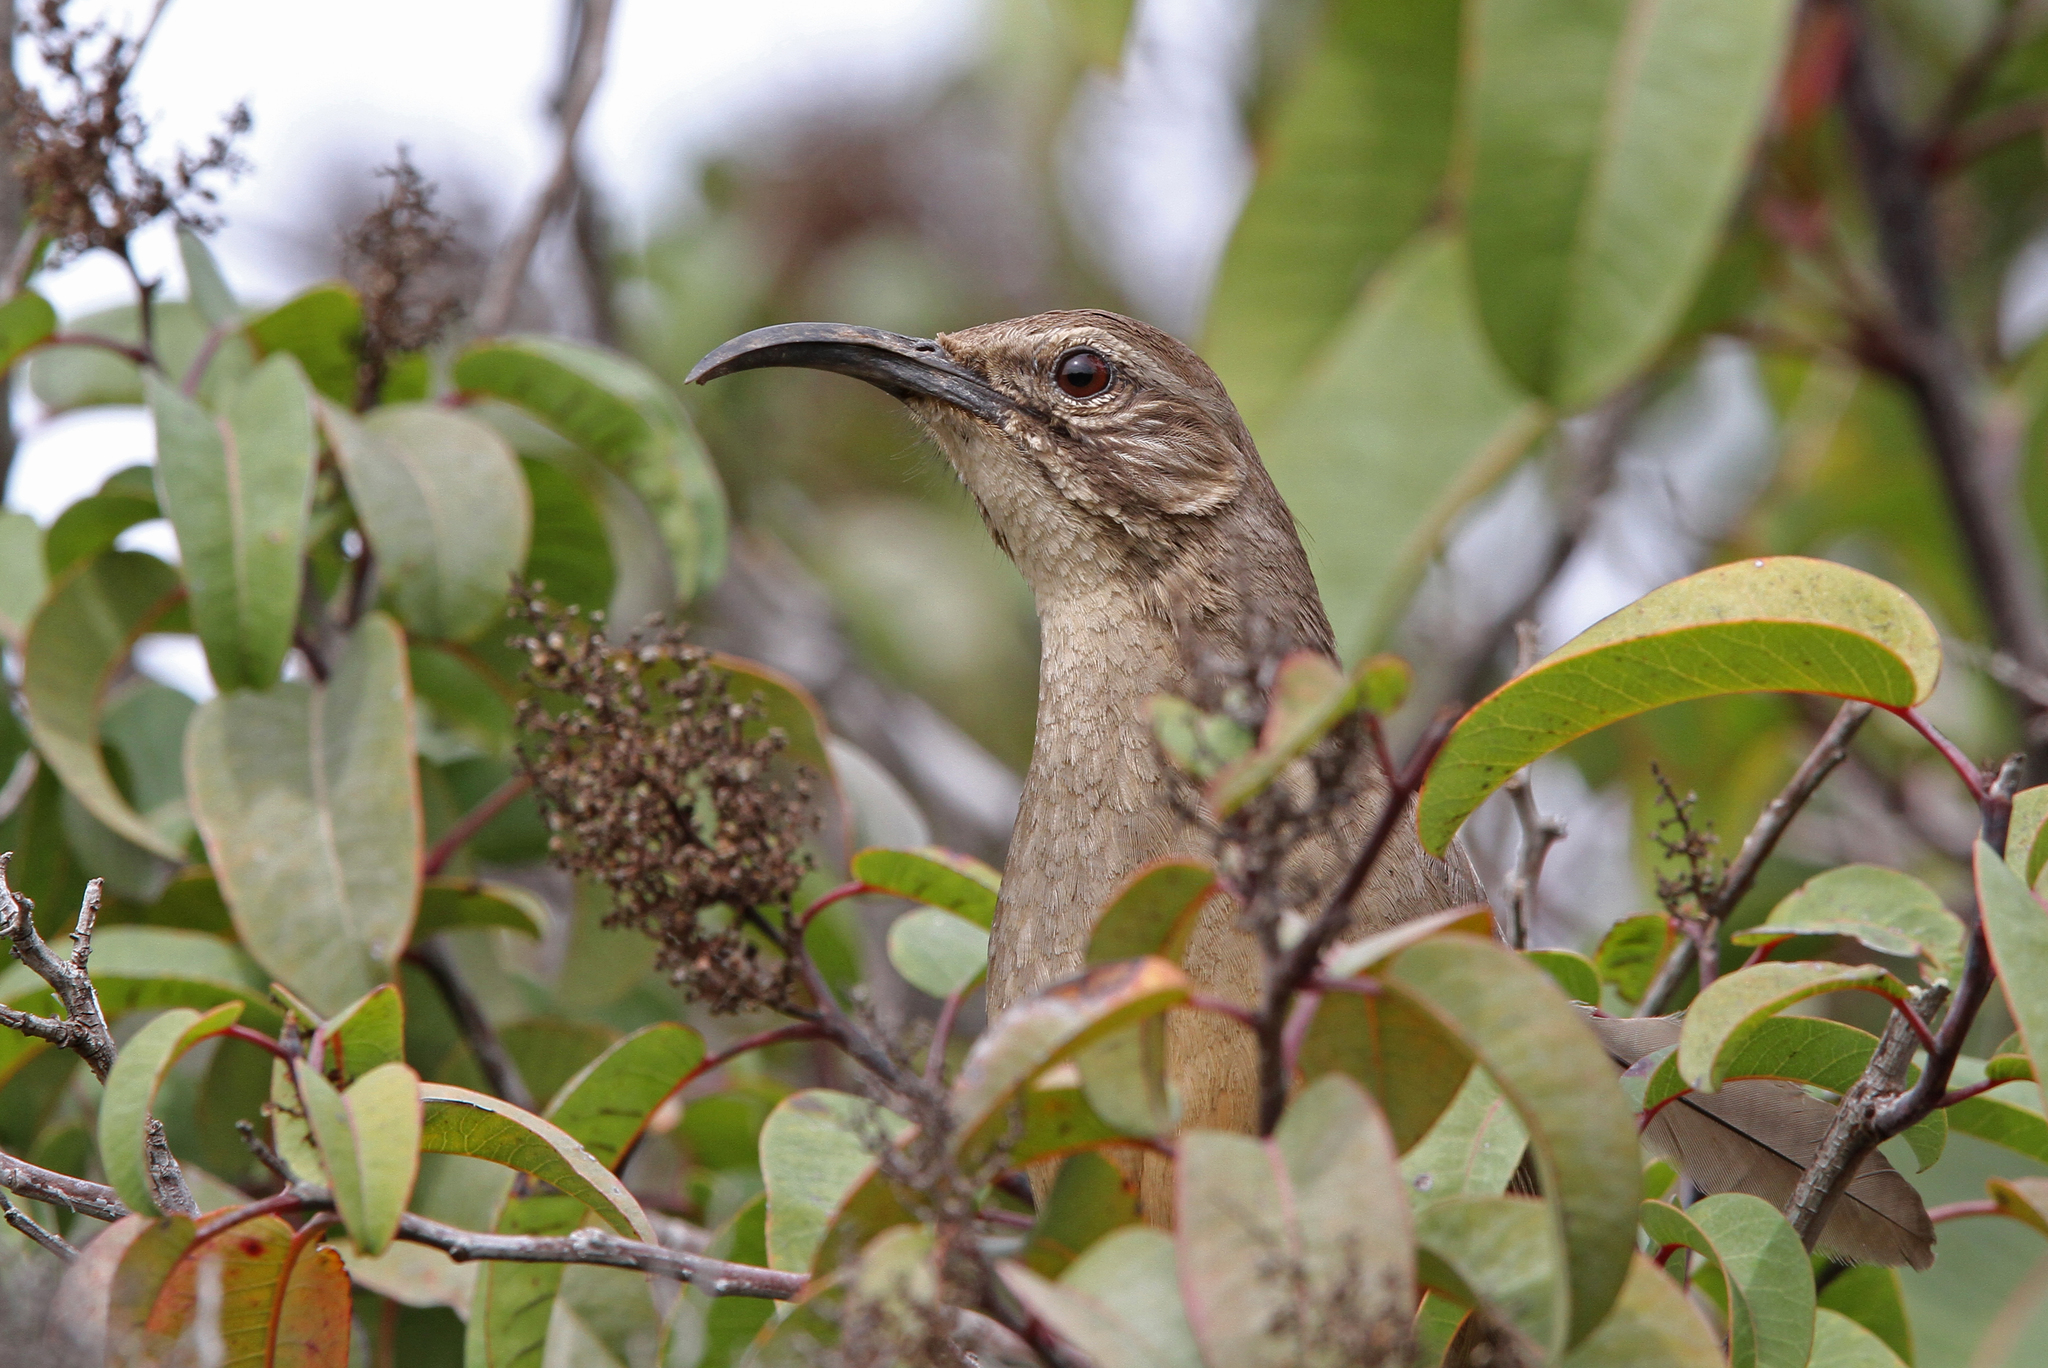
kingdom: Animalia
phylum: Chordata
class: Aves
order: Passeriformes
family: Mimidae
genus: Toxostoma
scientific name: Toxostoma redivivum
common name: California thrasher
